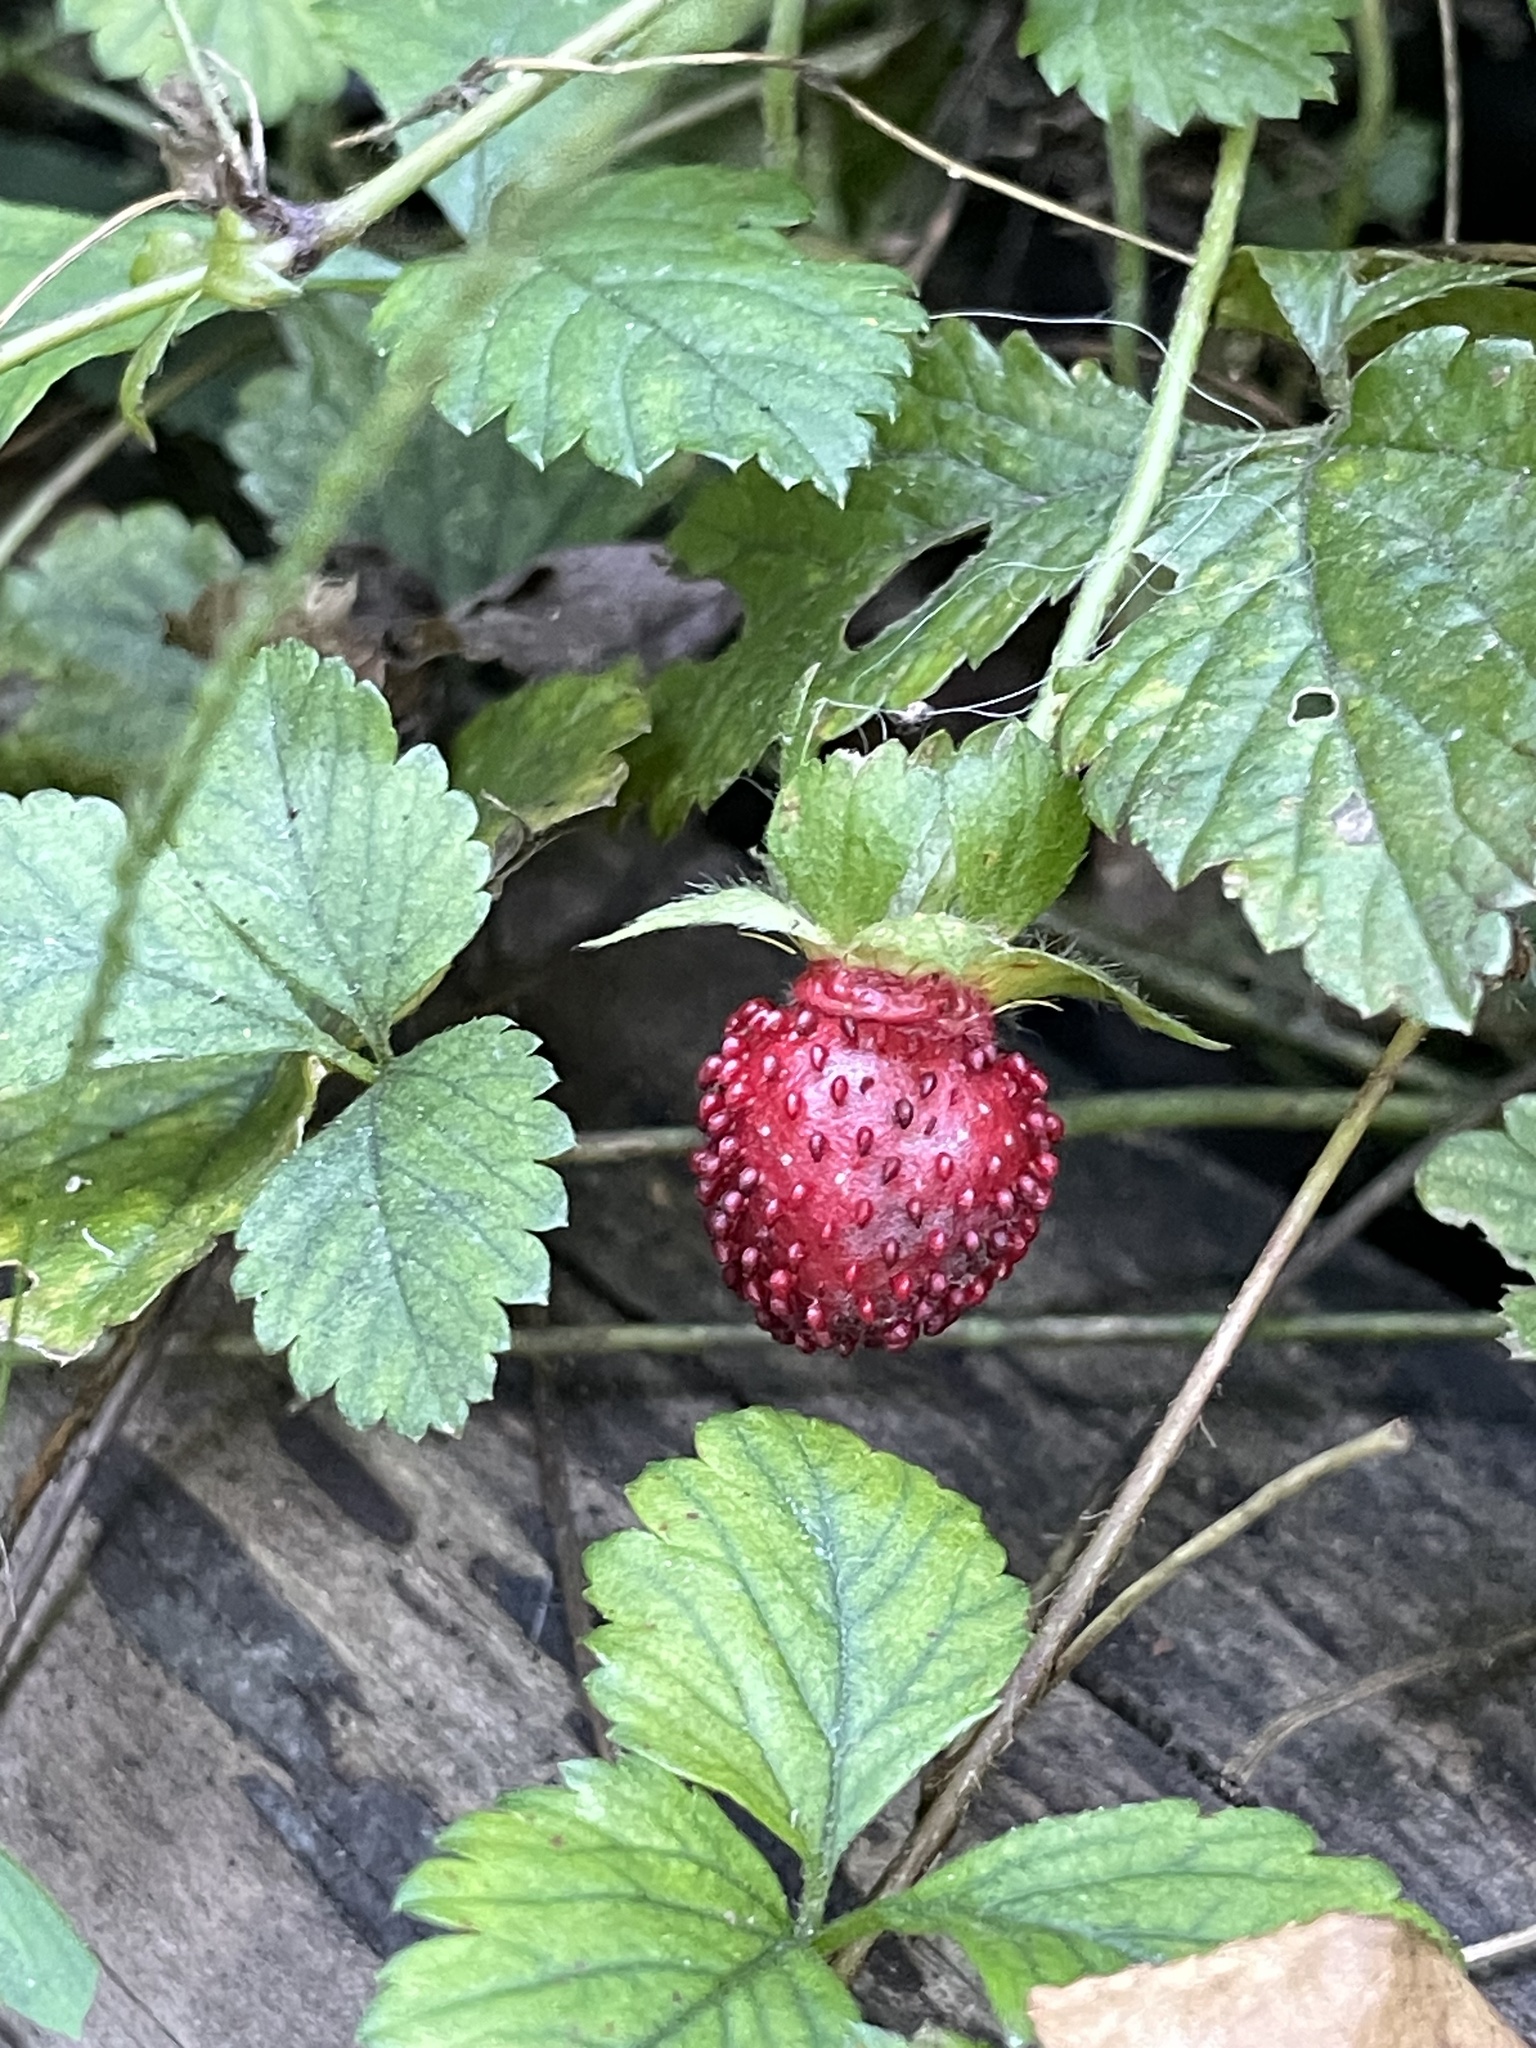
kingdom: Plantae
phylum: Tracheophyta
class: Magnoliopsida
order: Rosales
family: Rosaceae
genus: Potentilla
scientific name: Potentilla indica
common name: Yellow-flowered strawberry
